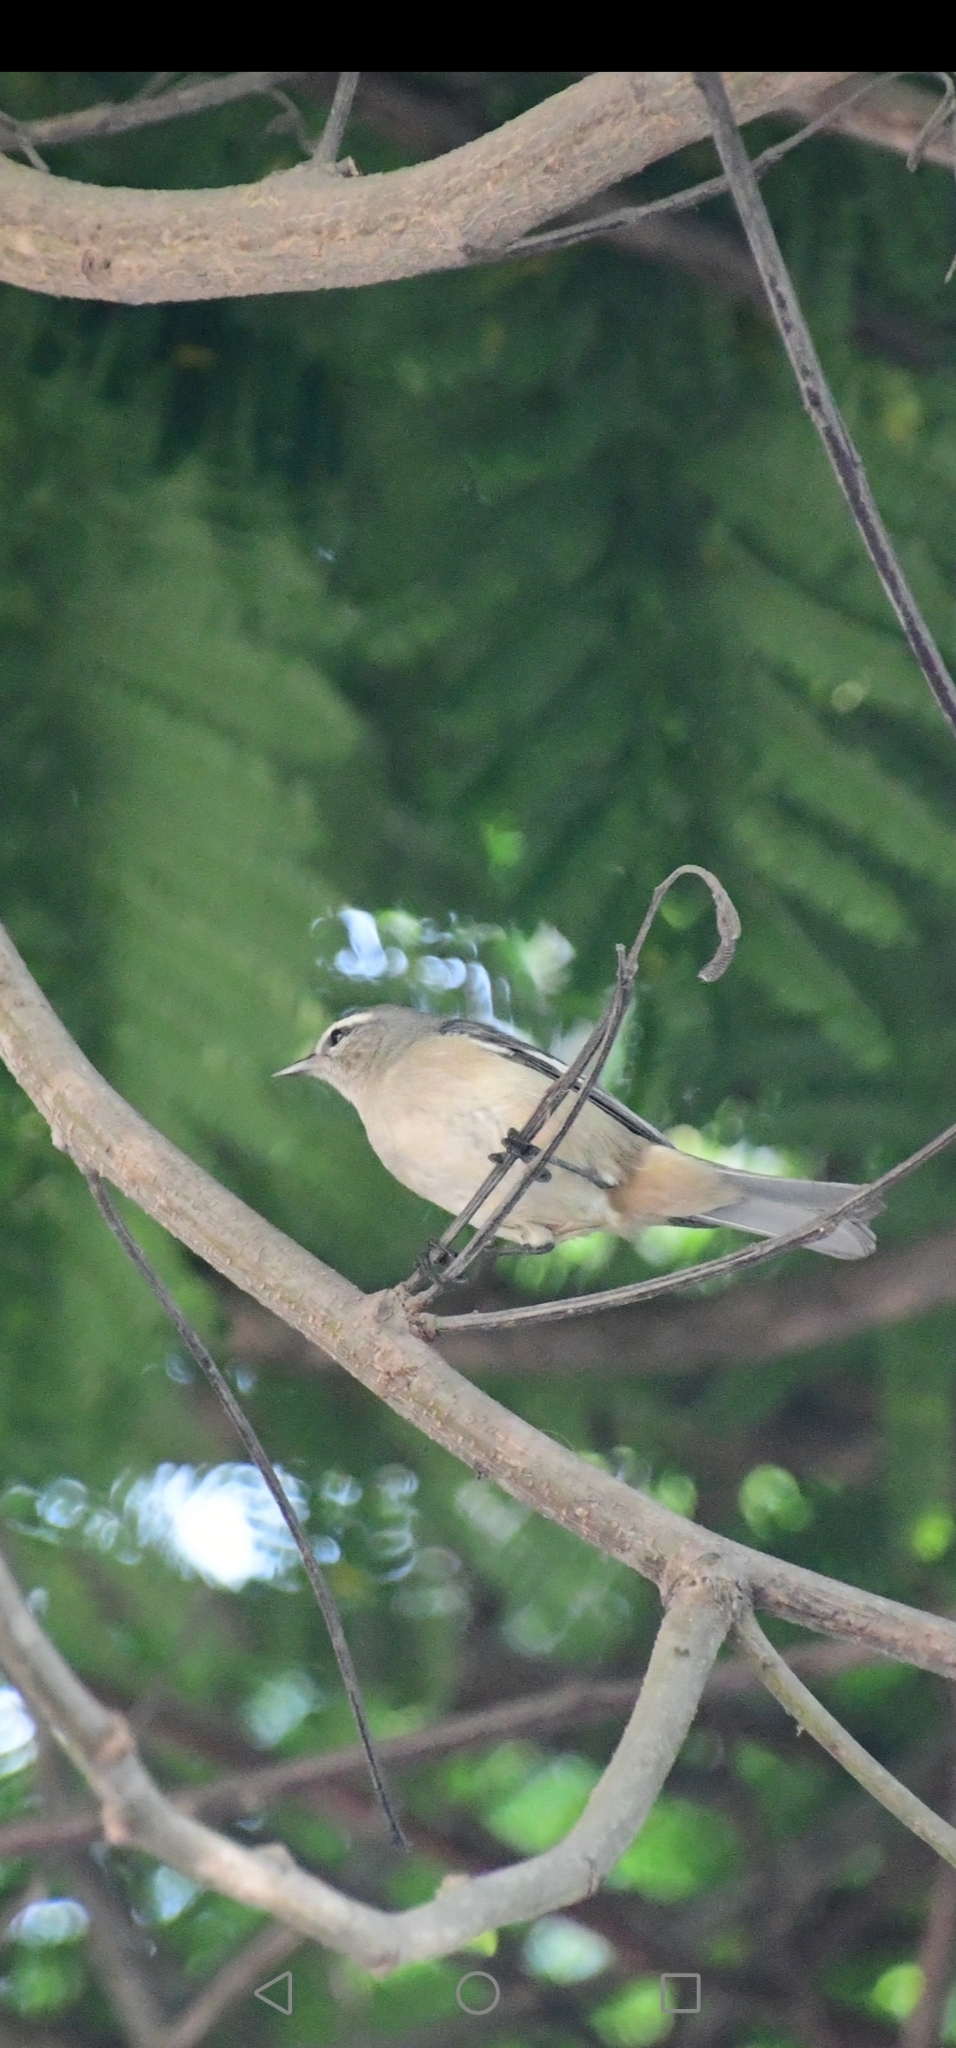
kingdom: Animalia
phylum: Chordata
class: Aves
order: Passeriformes
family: Thraupidae
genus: Conirostrum
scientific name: Conirostrum cinereum
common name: Cinereous conebill
